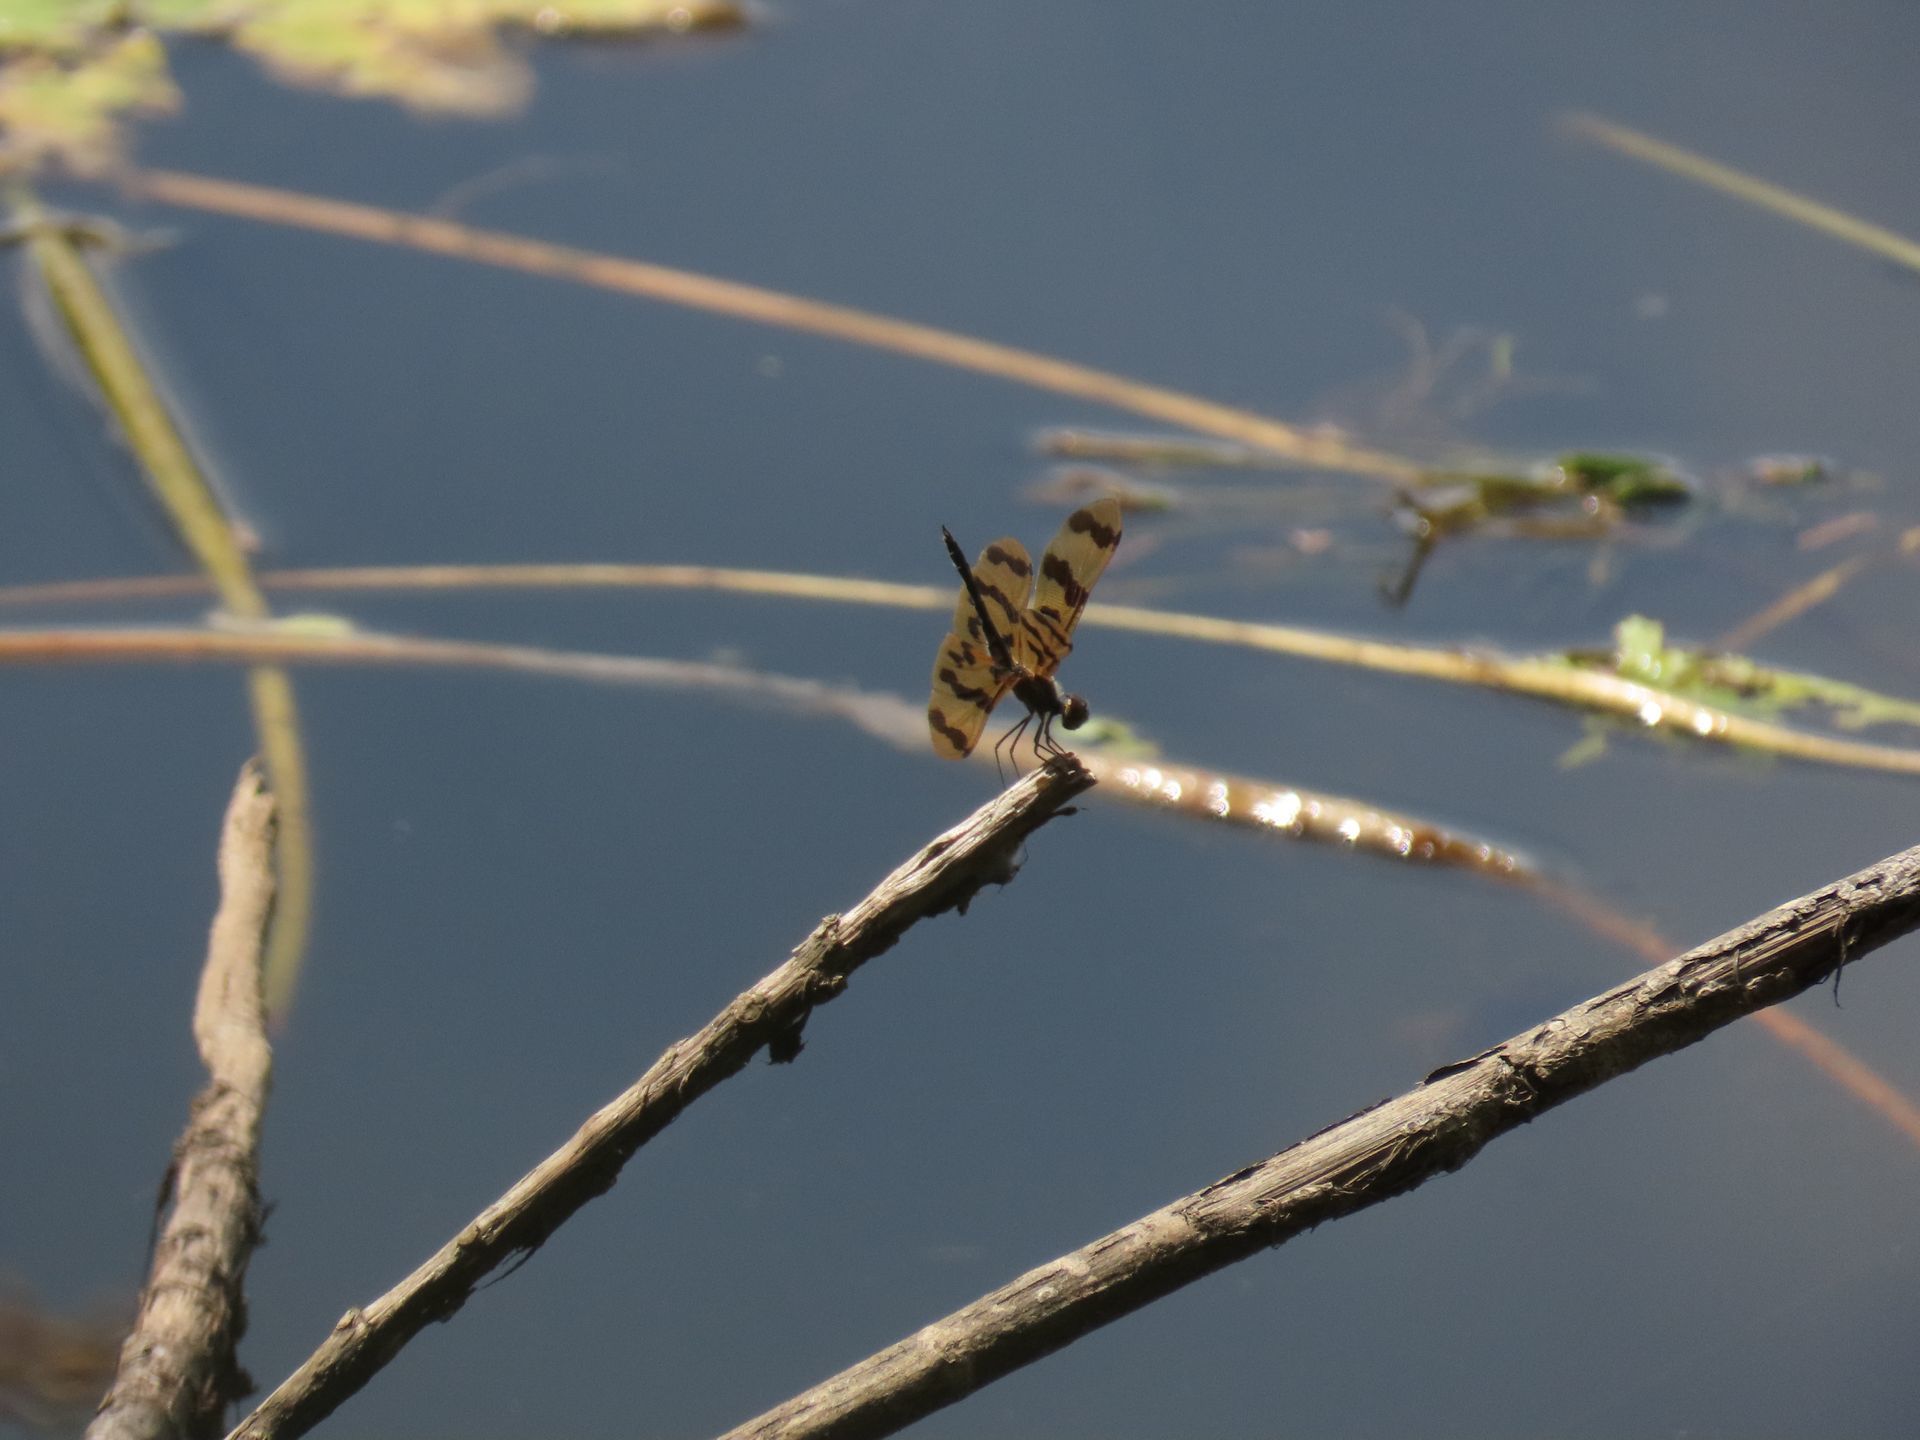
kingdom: Animalia
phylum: Arthropoda
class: Insecta
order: Odonata
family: Libellulidae
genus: Rhyothemis
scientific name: Rhyothemis graphiptera
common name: Graphic flutterer
